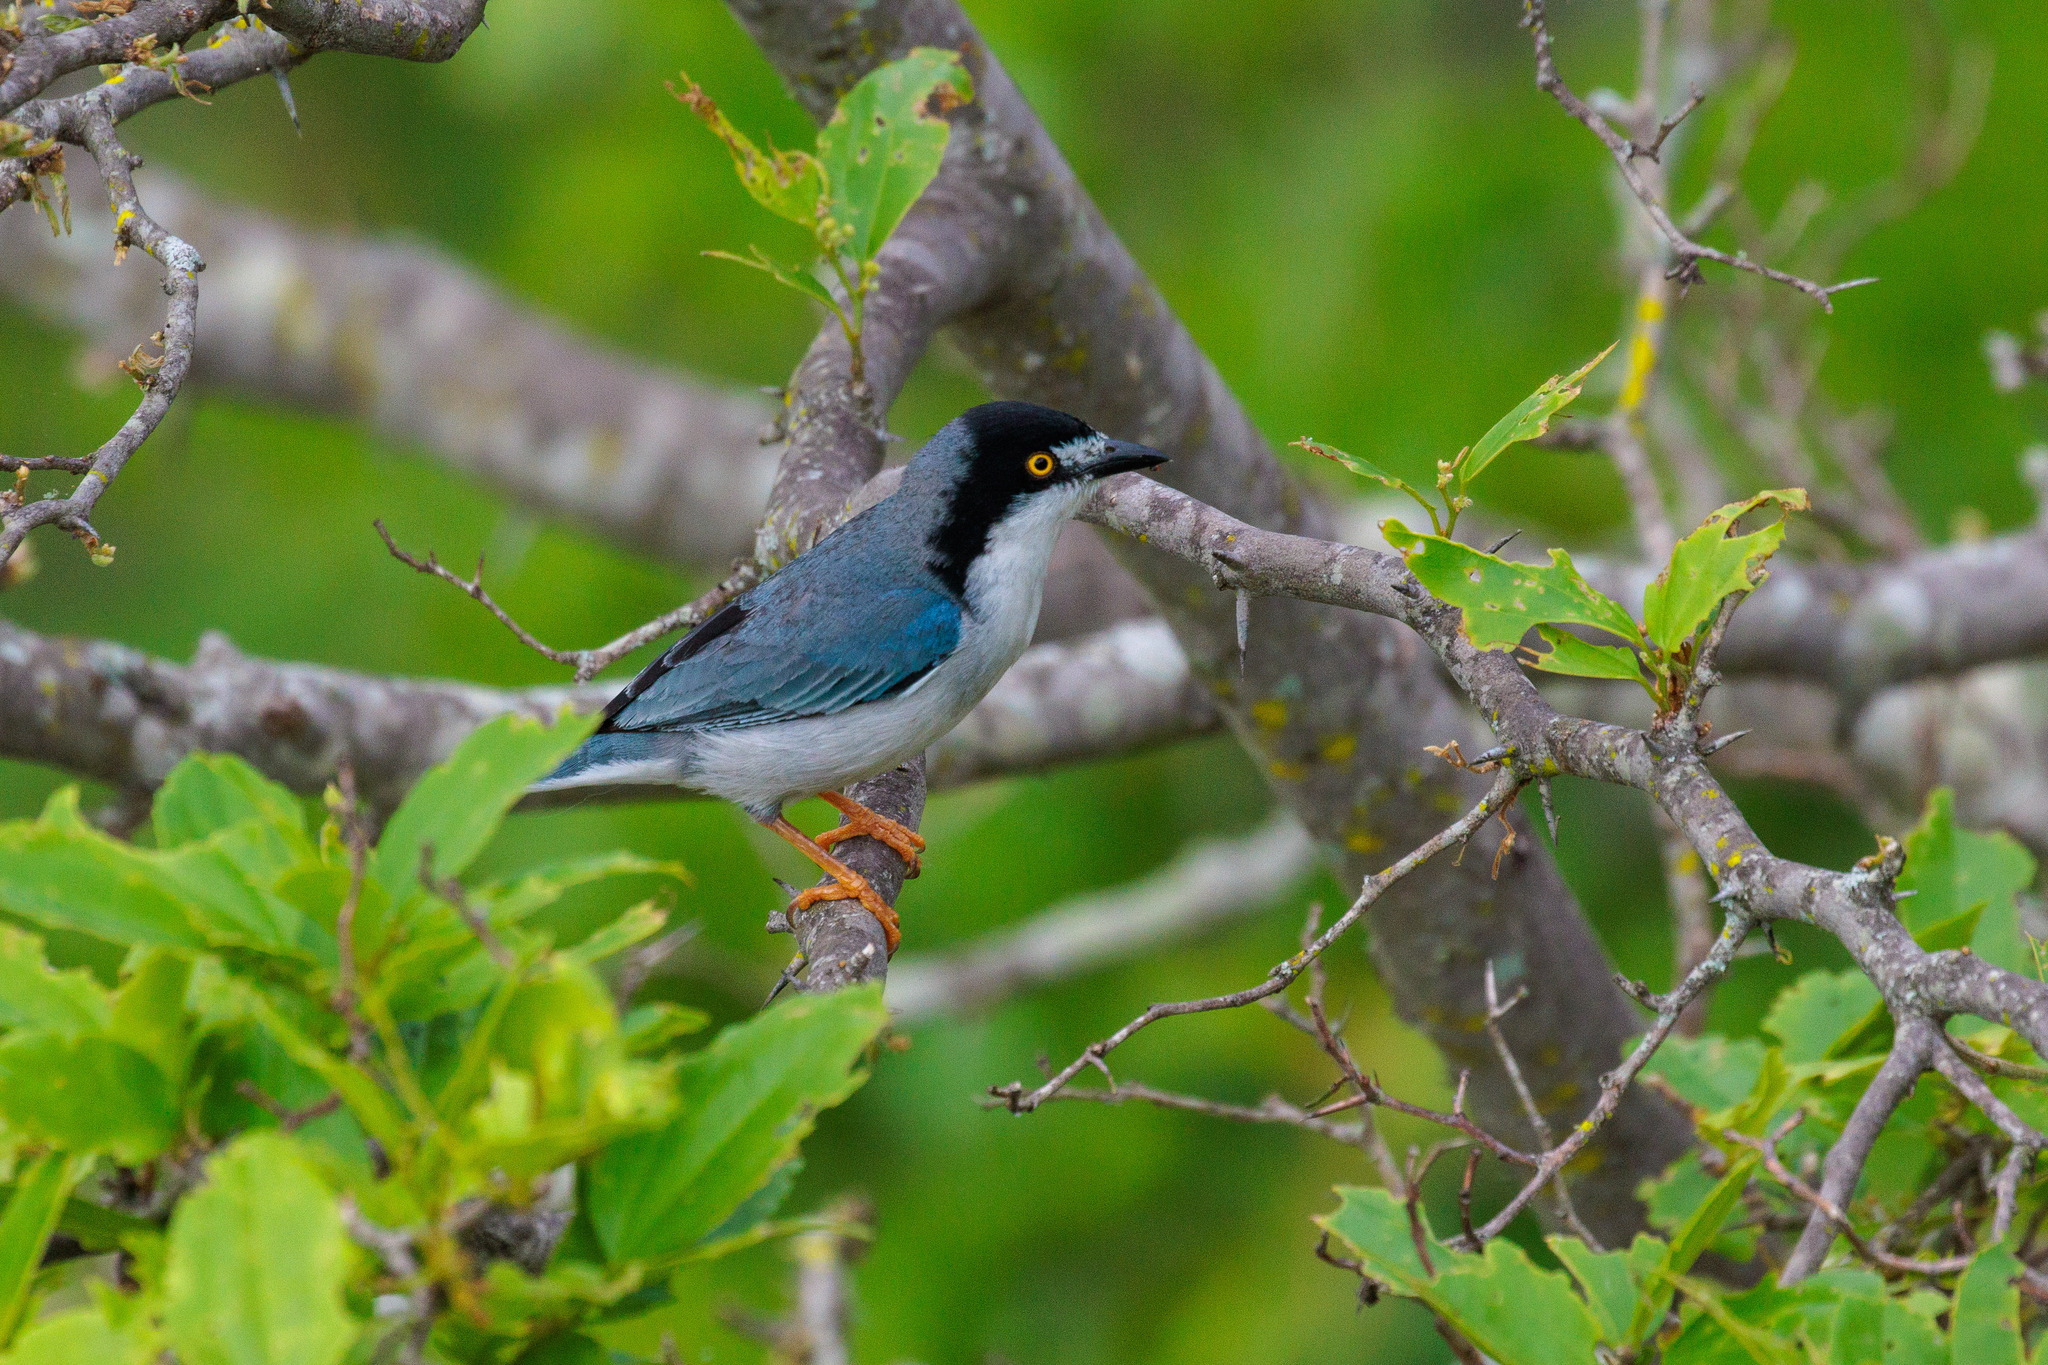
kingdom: Animalia
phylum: Chordata
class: Aves
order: Passeriformes
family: Thraupidae
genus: Nemosia
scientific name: Nemosia pileata
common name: Hooded tanager
